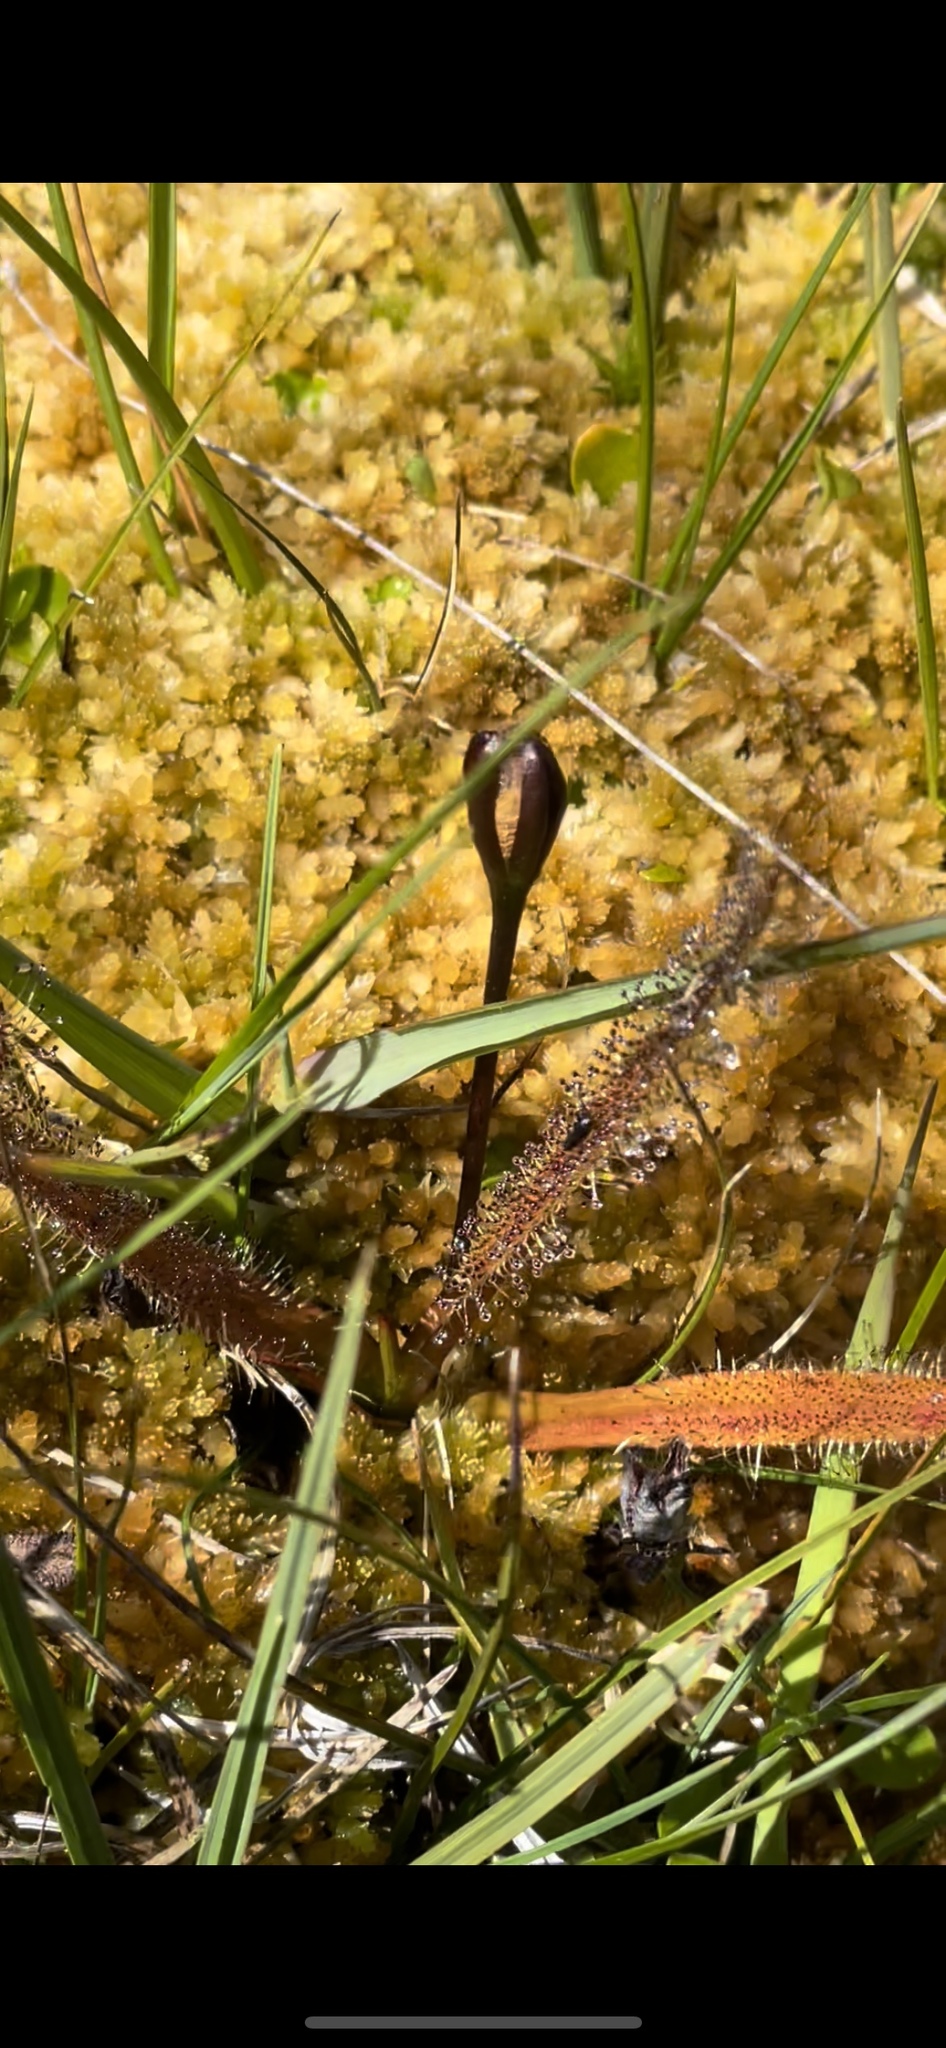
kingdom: Plantae
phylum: Tracheophyta
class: Magnoliopsida
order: Caryophyllales
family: Droseraceae
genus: Drosera
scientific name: Drosera arcturi
